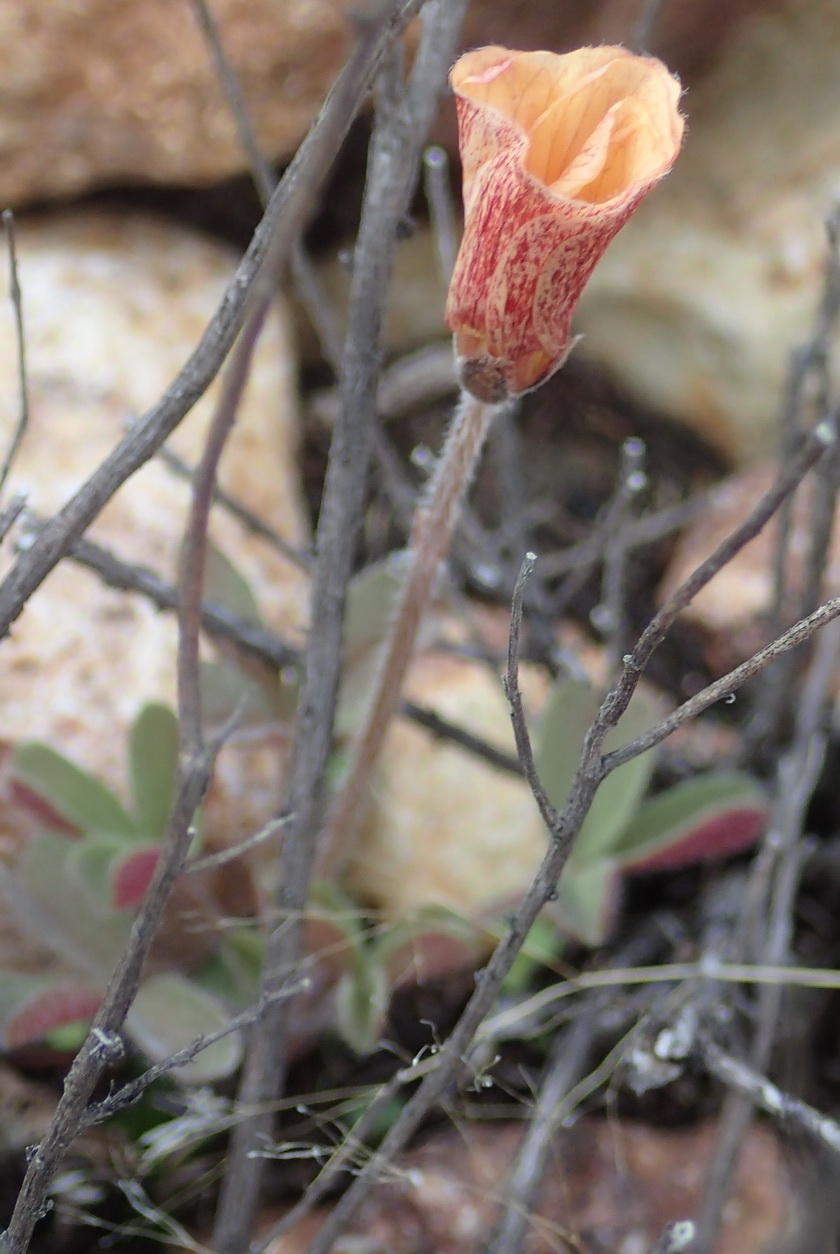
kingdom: Plantae
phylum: Tracheophyta
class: Magnoliopsida
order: Oxalidales
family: Oxalidaceae
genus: Oxalis
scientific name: Oxalis obtusa
